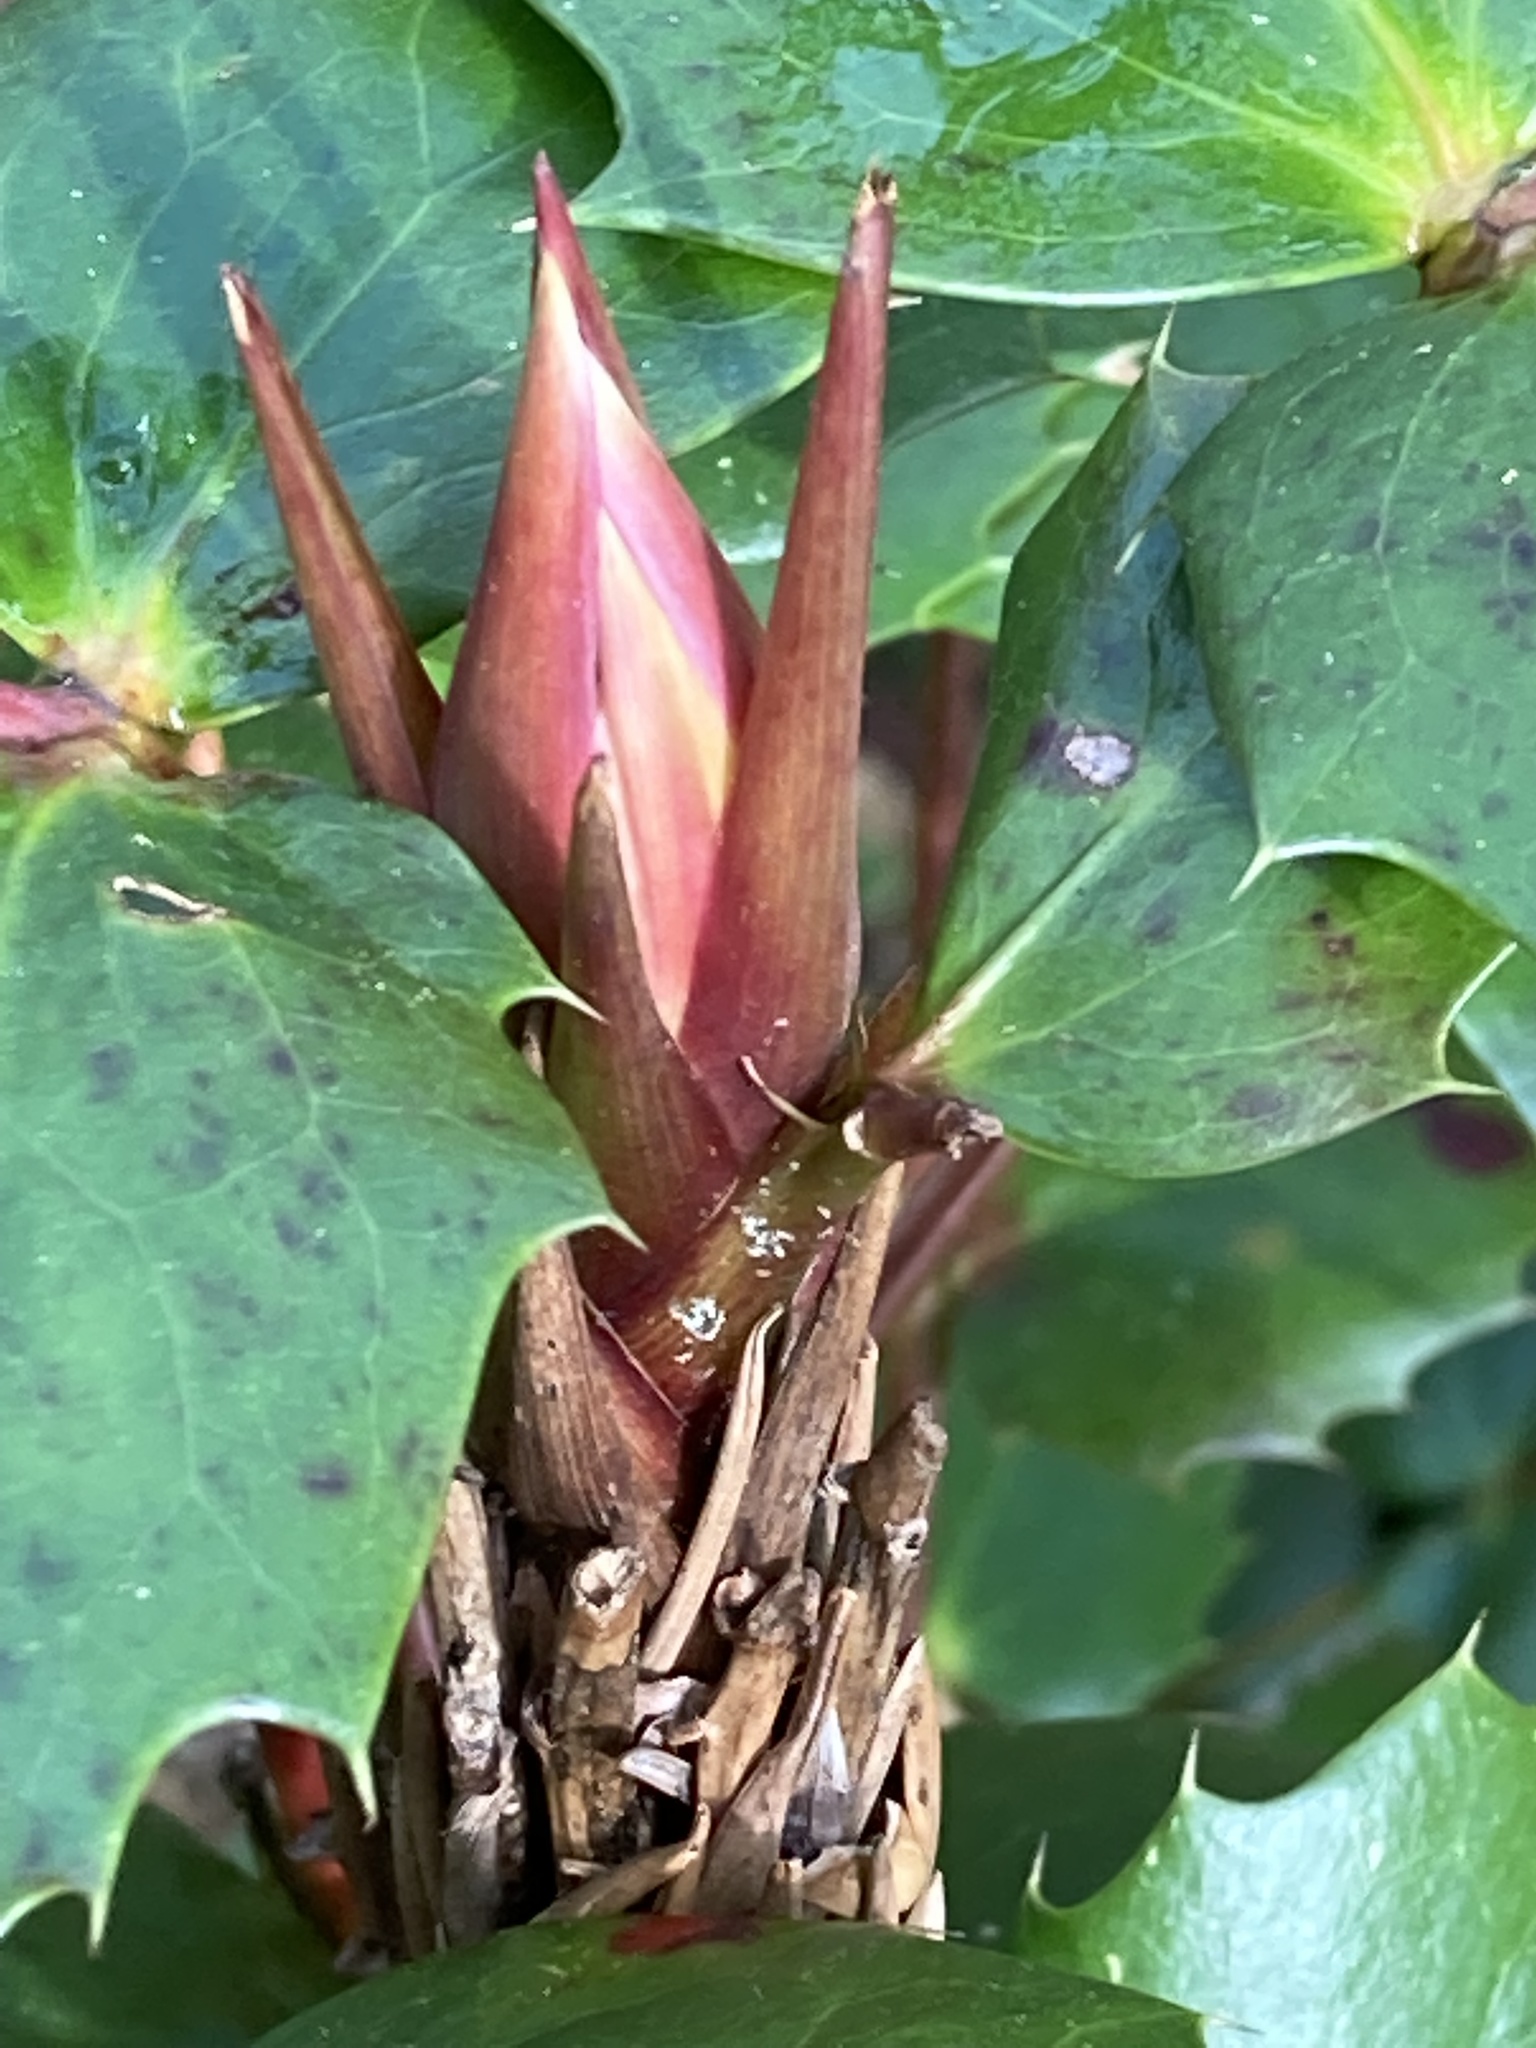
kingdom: Plantae
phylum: Tracheophyta
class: Magnoliopsida
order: Ranunculales
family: Berberidaceae
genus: Mahonia
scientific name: Mahonia nervosa
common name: Cascade oregon-grape
